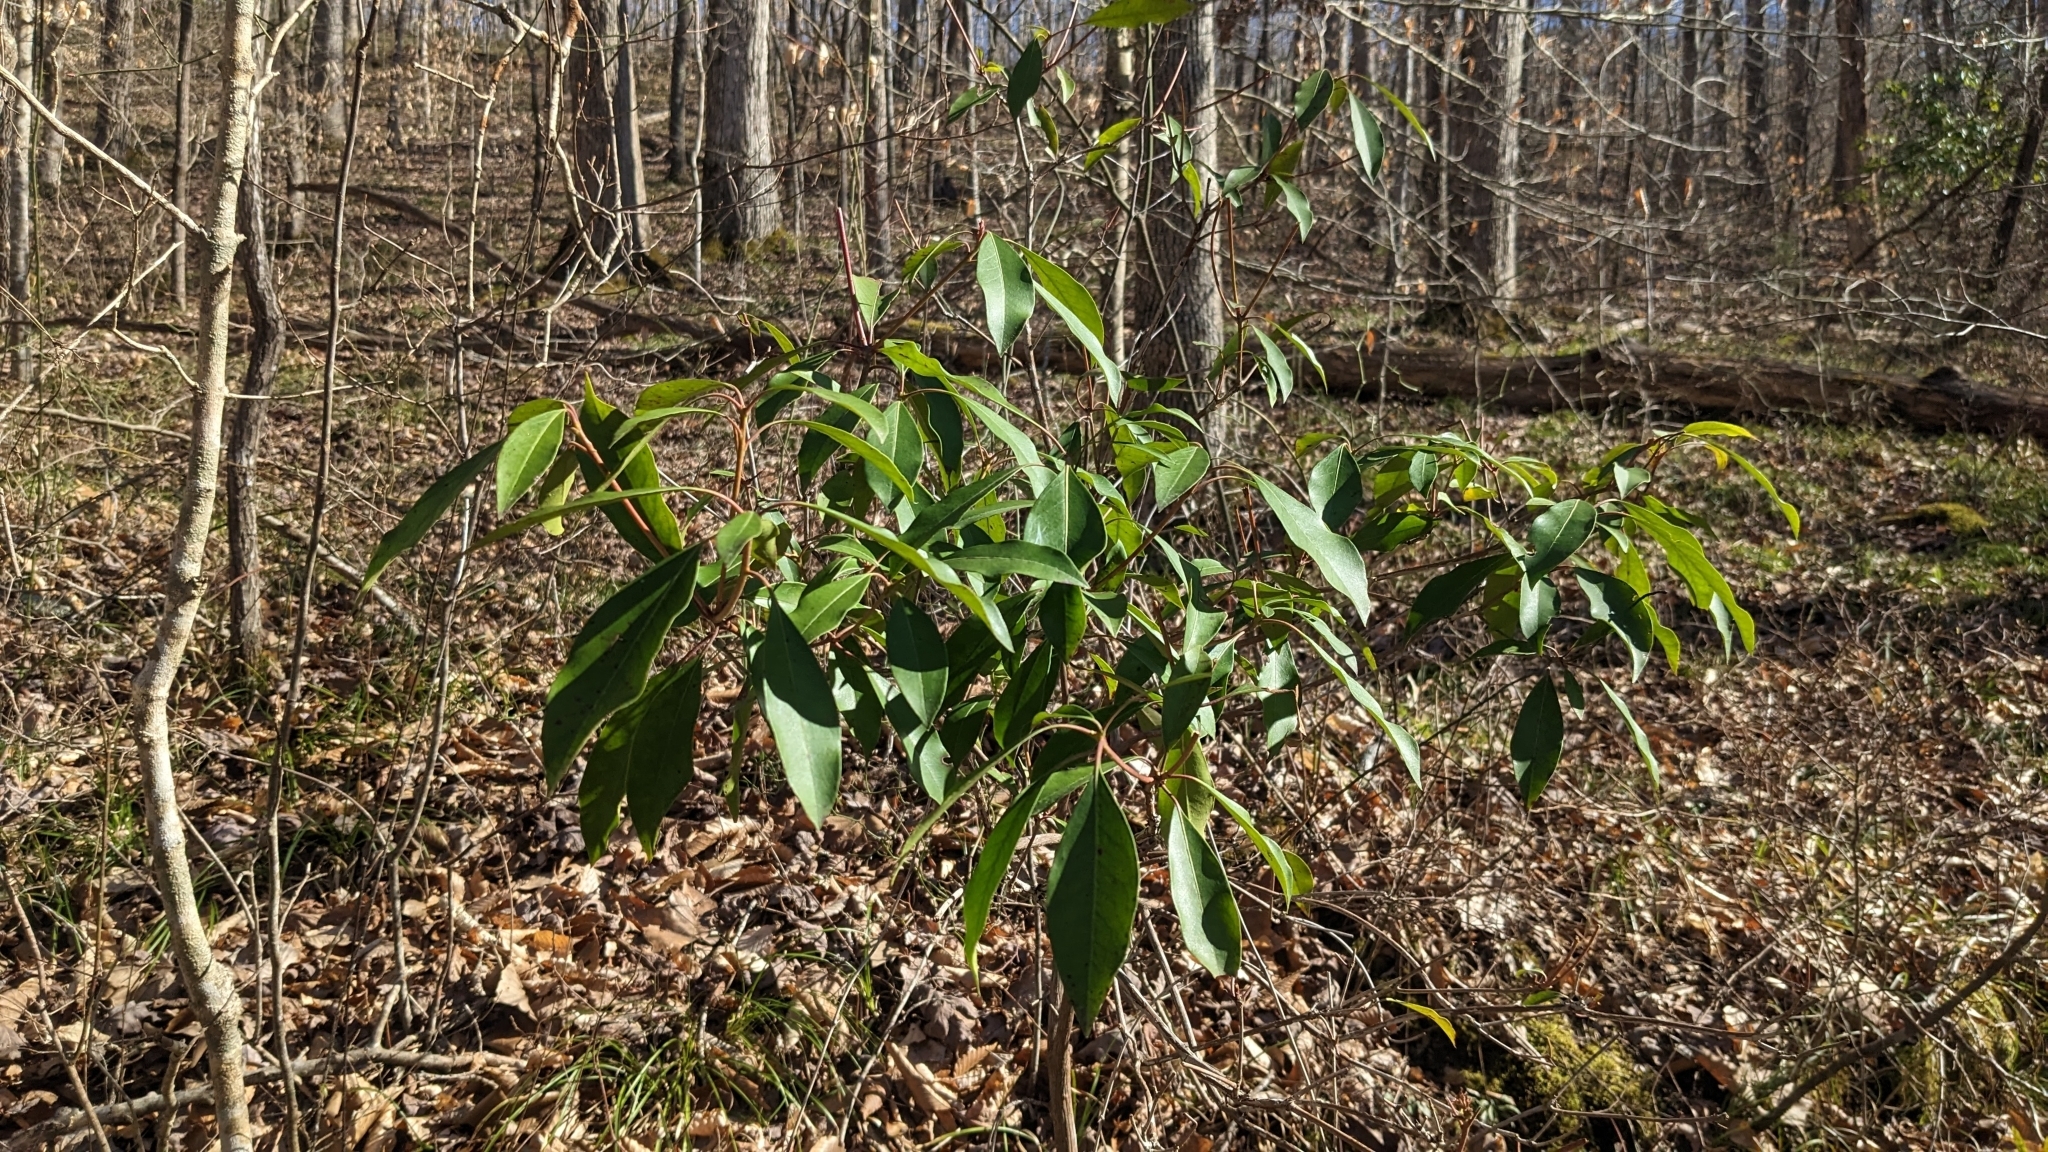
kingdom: Plantae
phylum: Tracheophyta
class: Magnoliopsida
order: Ericales
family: Ericaceae
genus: Kalmia
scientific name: Kalmia latifolia
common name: Mountain-laurel
